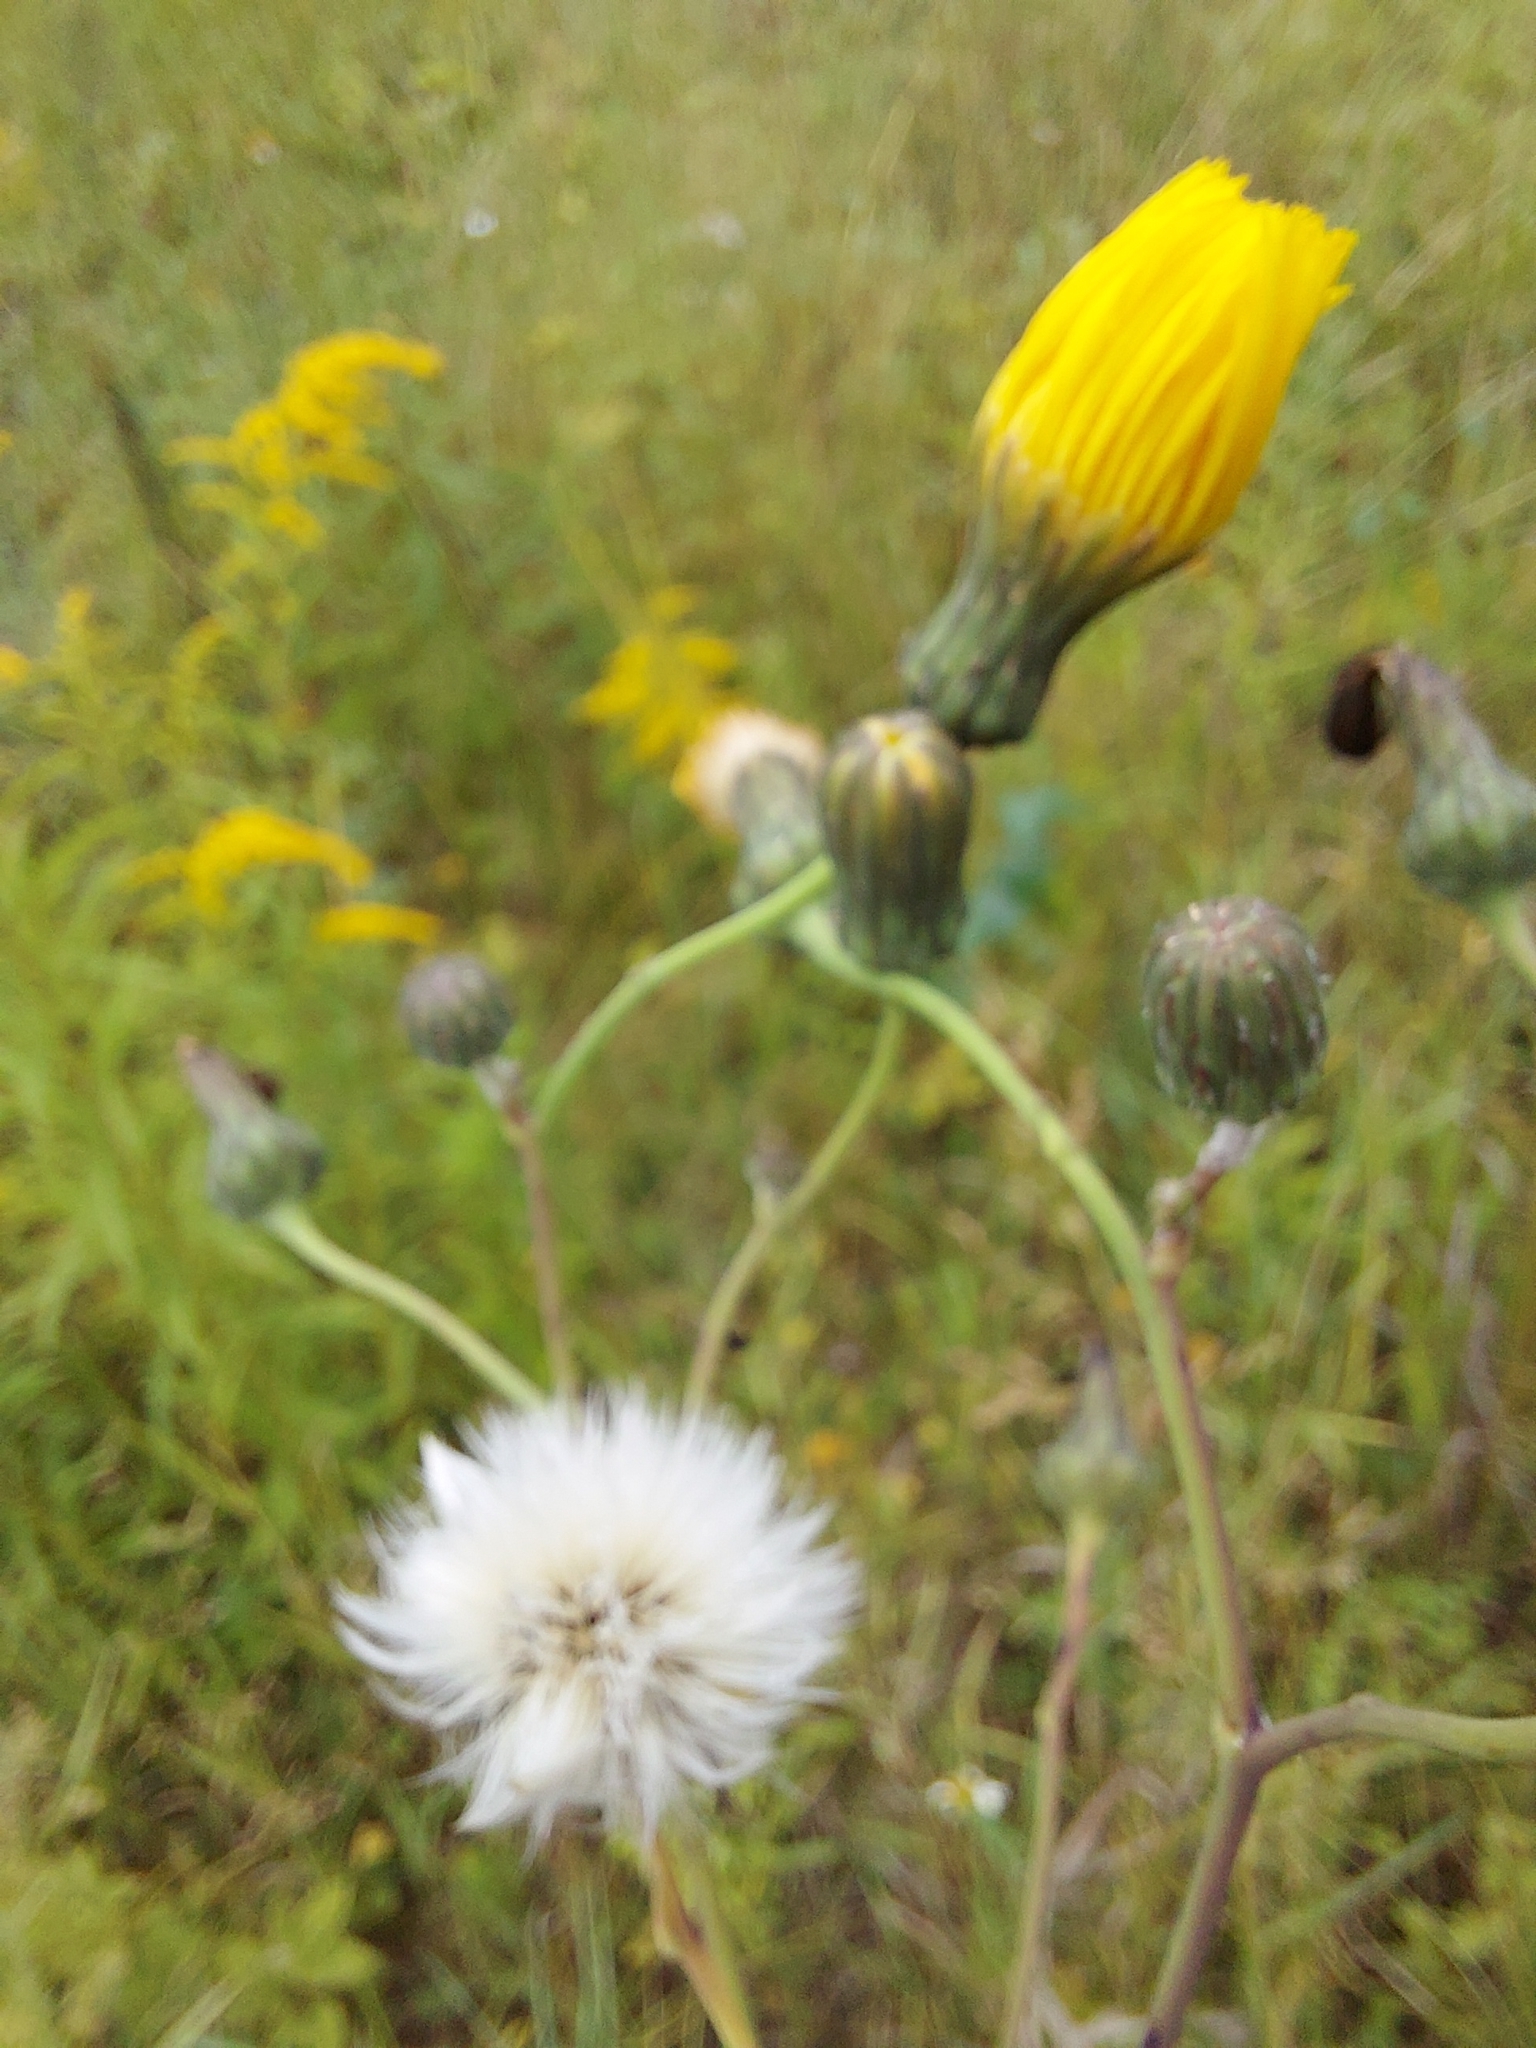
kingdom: Plantae
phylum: Tracheophyta
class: Magnoliopsida
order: Asterales
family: Asteraceae
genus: Sonchus
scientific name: Sonchus arvensis
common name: Perennial sow-thistle
